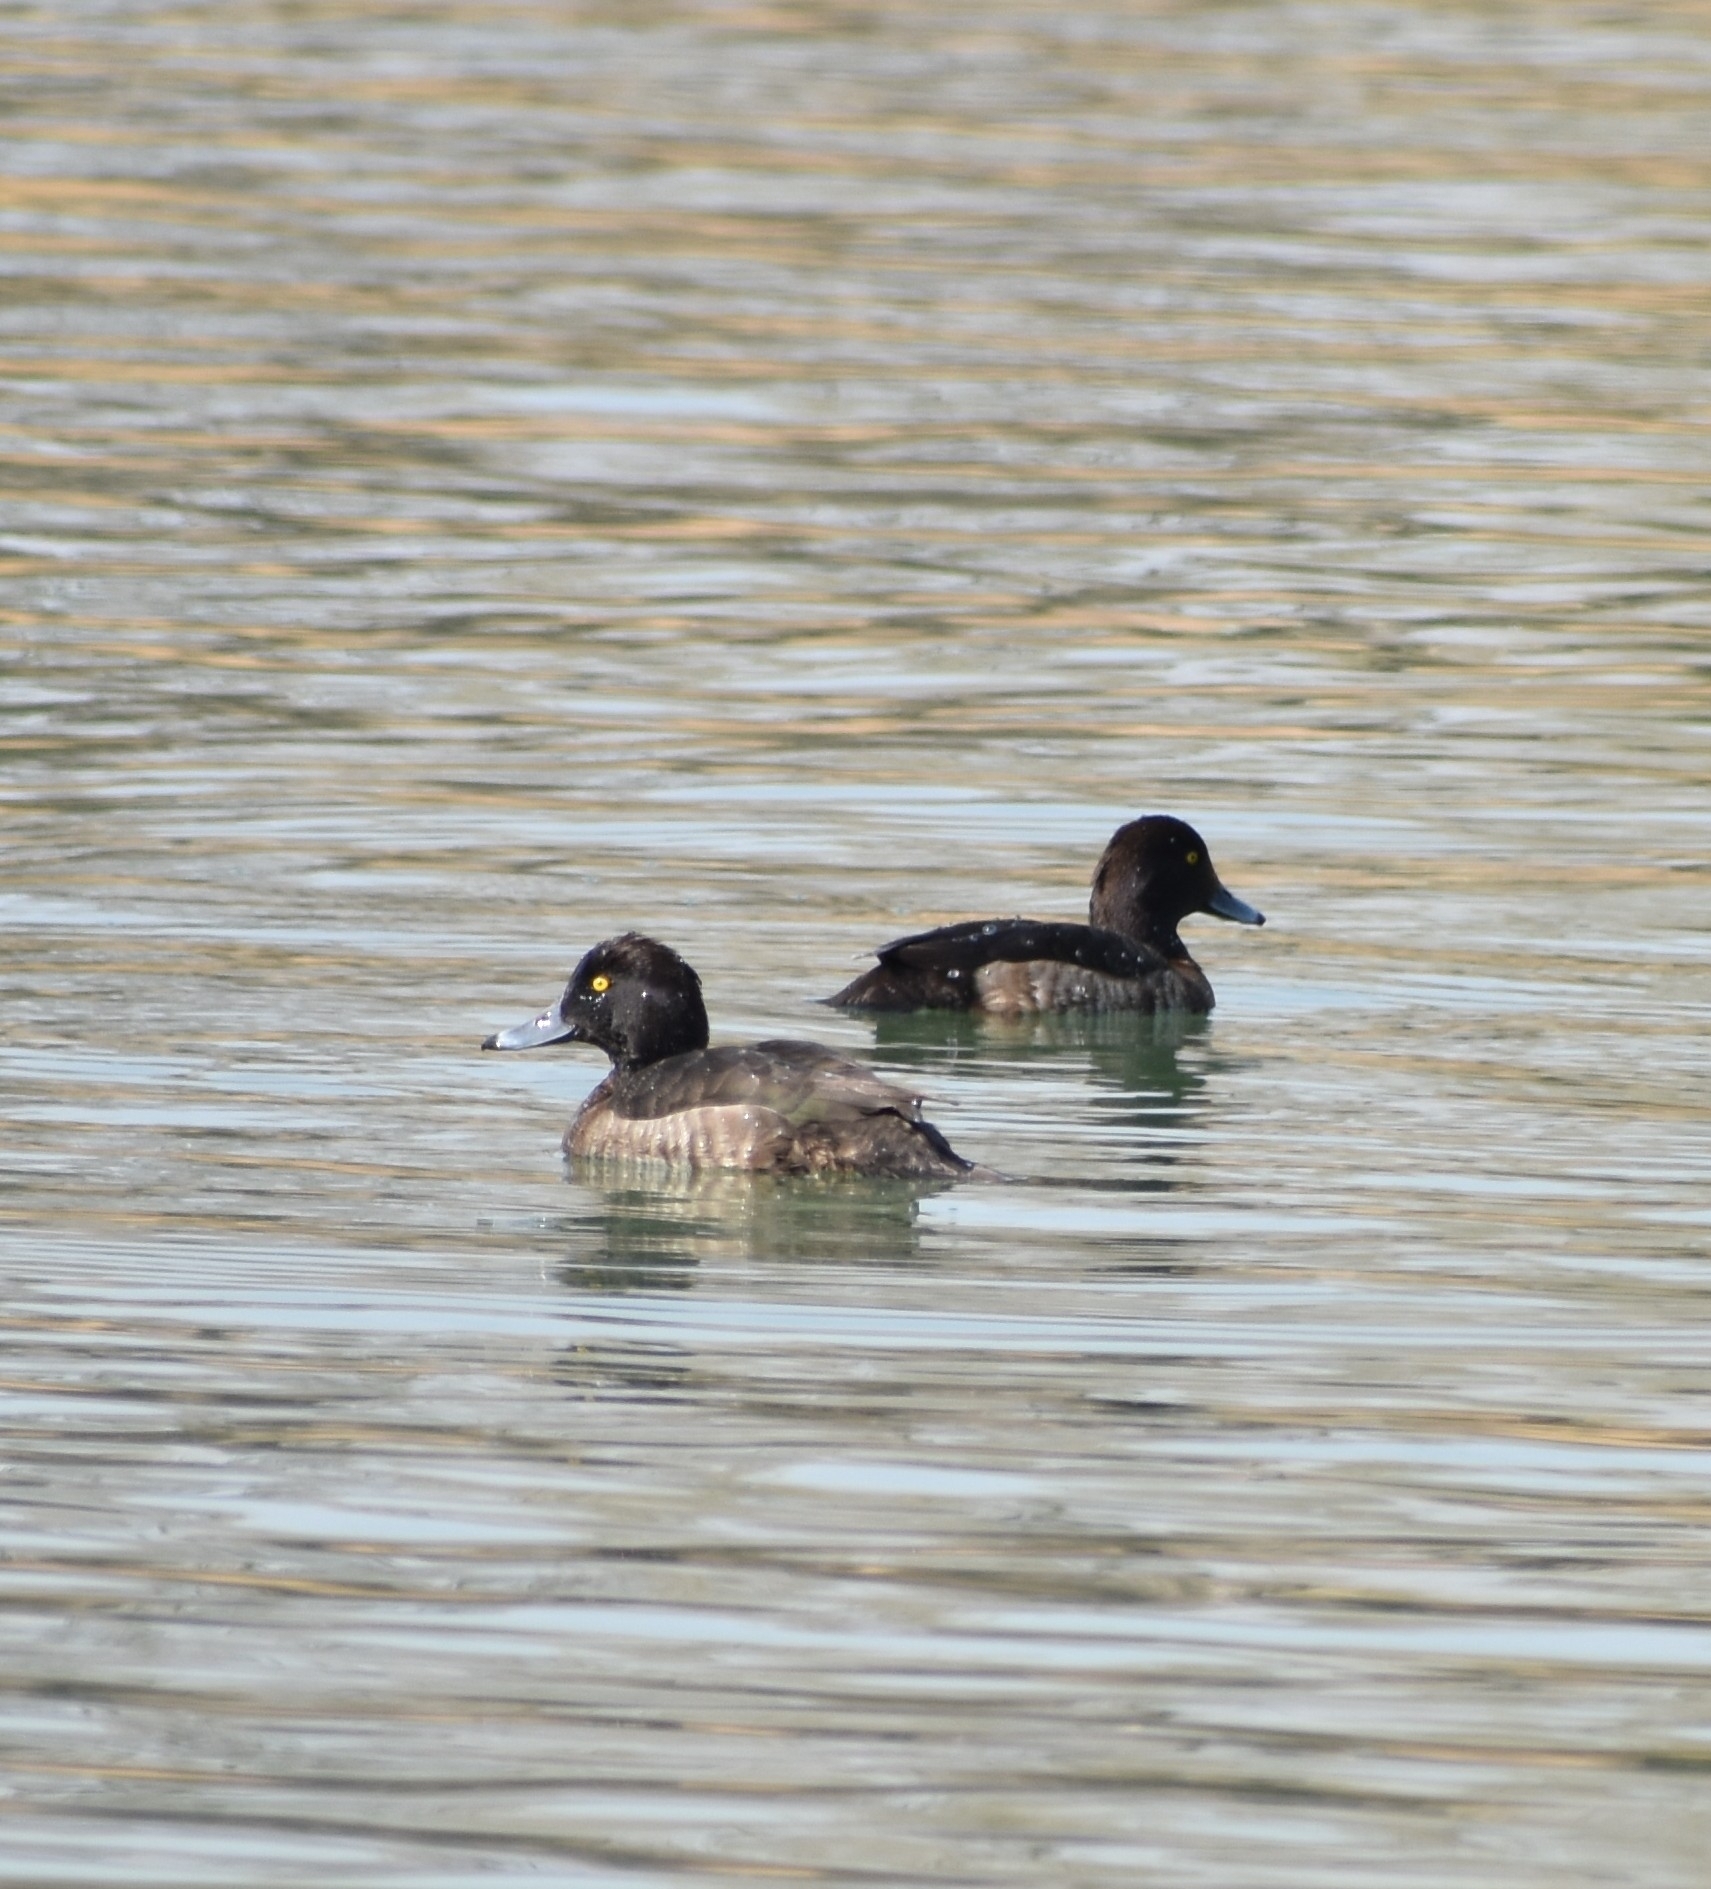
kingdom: Animalia
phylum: Chordata
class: Aves
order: Anseriformes
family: Anatidae
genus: Aythya
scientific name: Aythya fuligula
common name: Tufted duck
